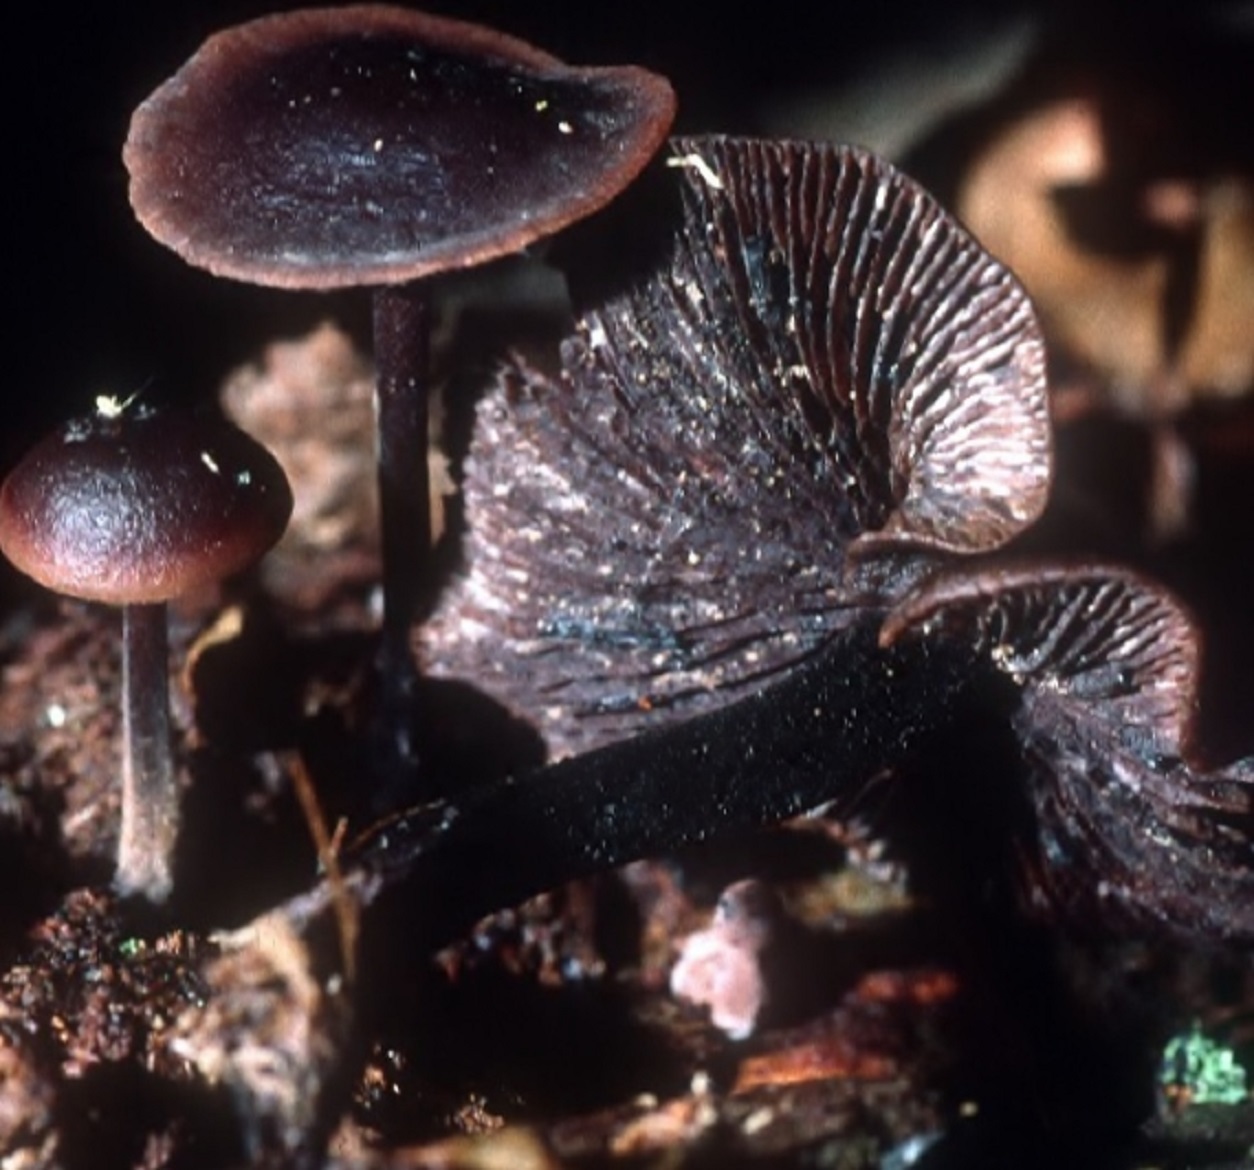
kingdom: Fungi
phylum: Basidiomycota
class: Agaricomycetes
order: Agaricales
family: Omphalotaceae
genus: Gymnopus
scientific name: Gymnopus alkalivirens
